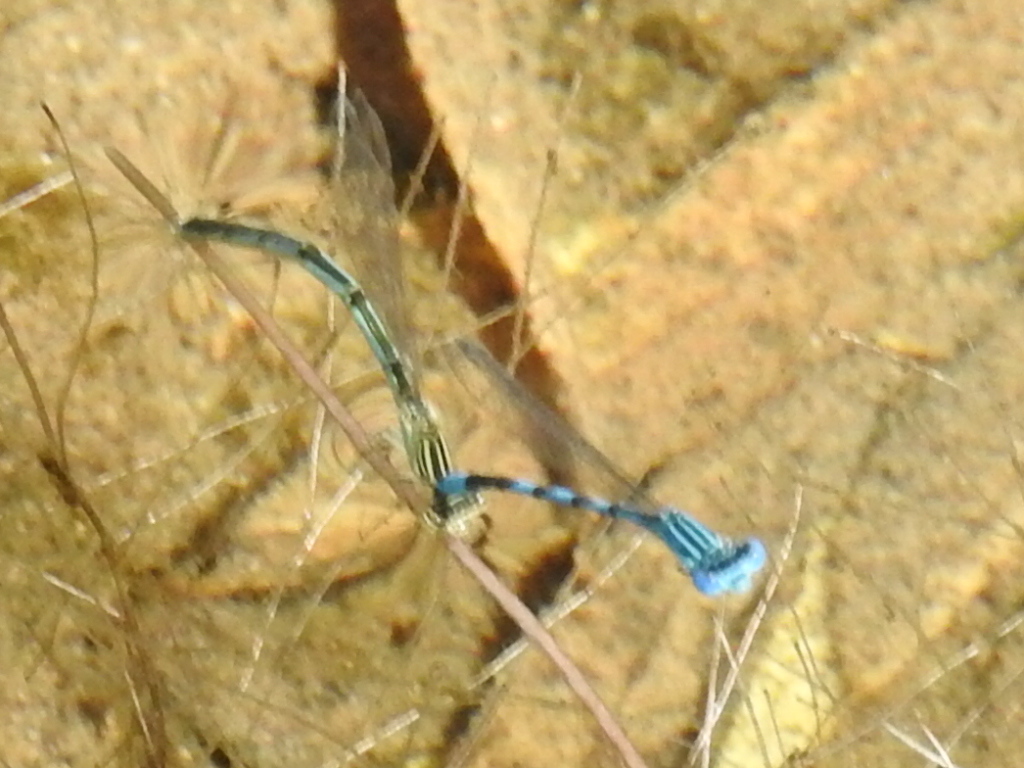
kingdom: Animalia
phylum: Arthropoda
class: Insecta
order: Odonata
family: Coenagrionidae
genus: Enallagma
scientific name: Enallagma basidens
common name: Double-striped bluet
